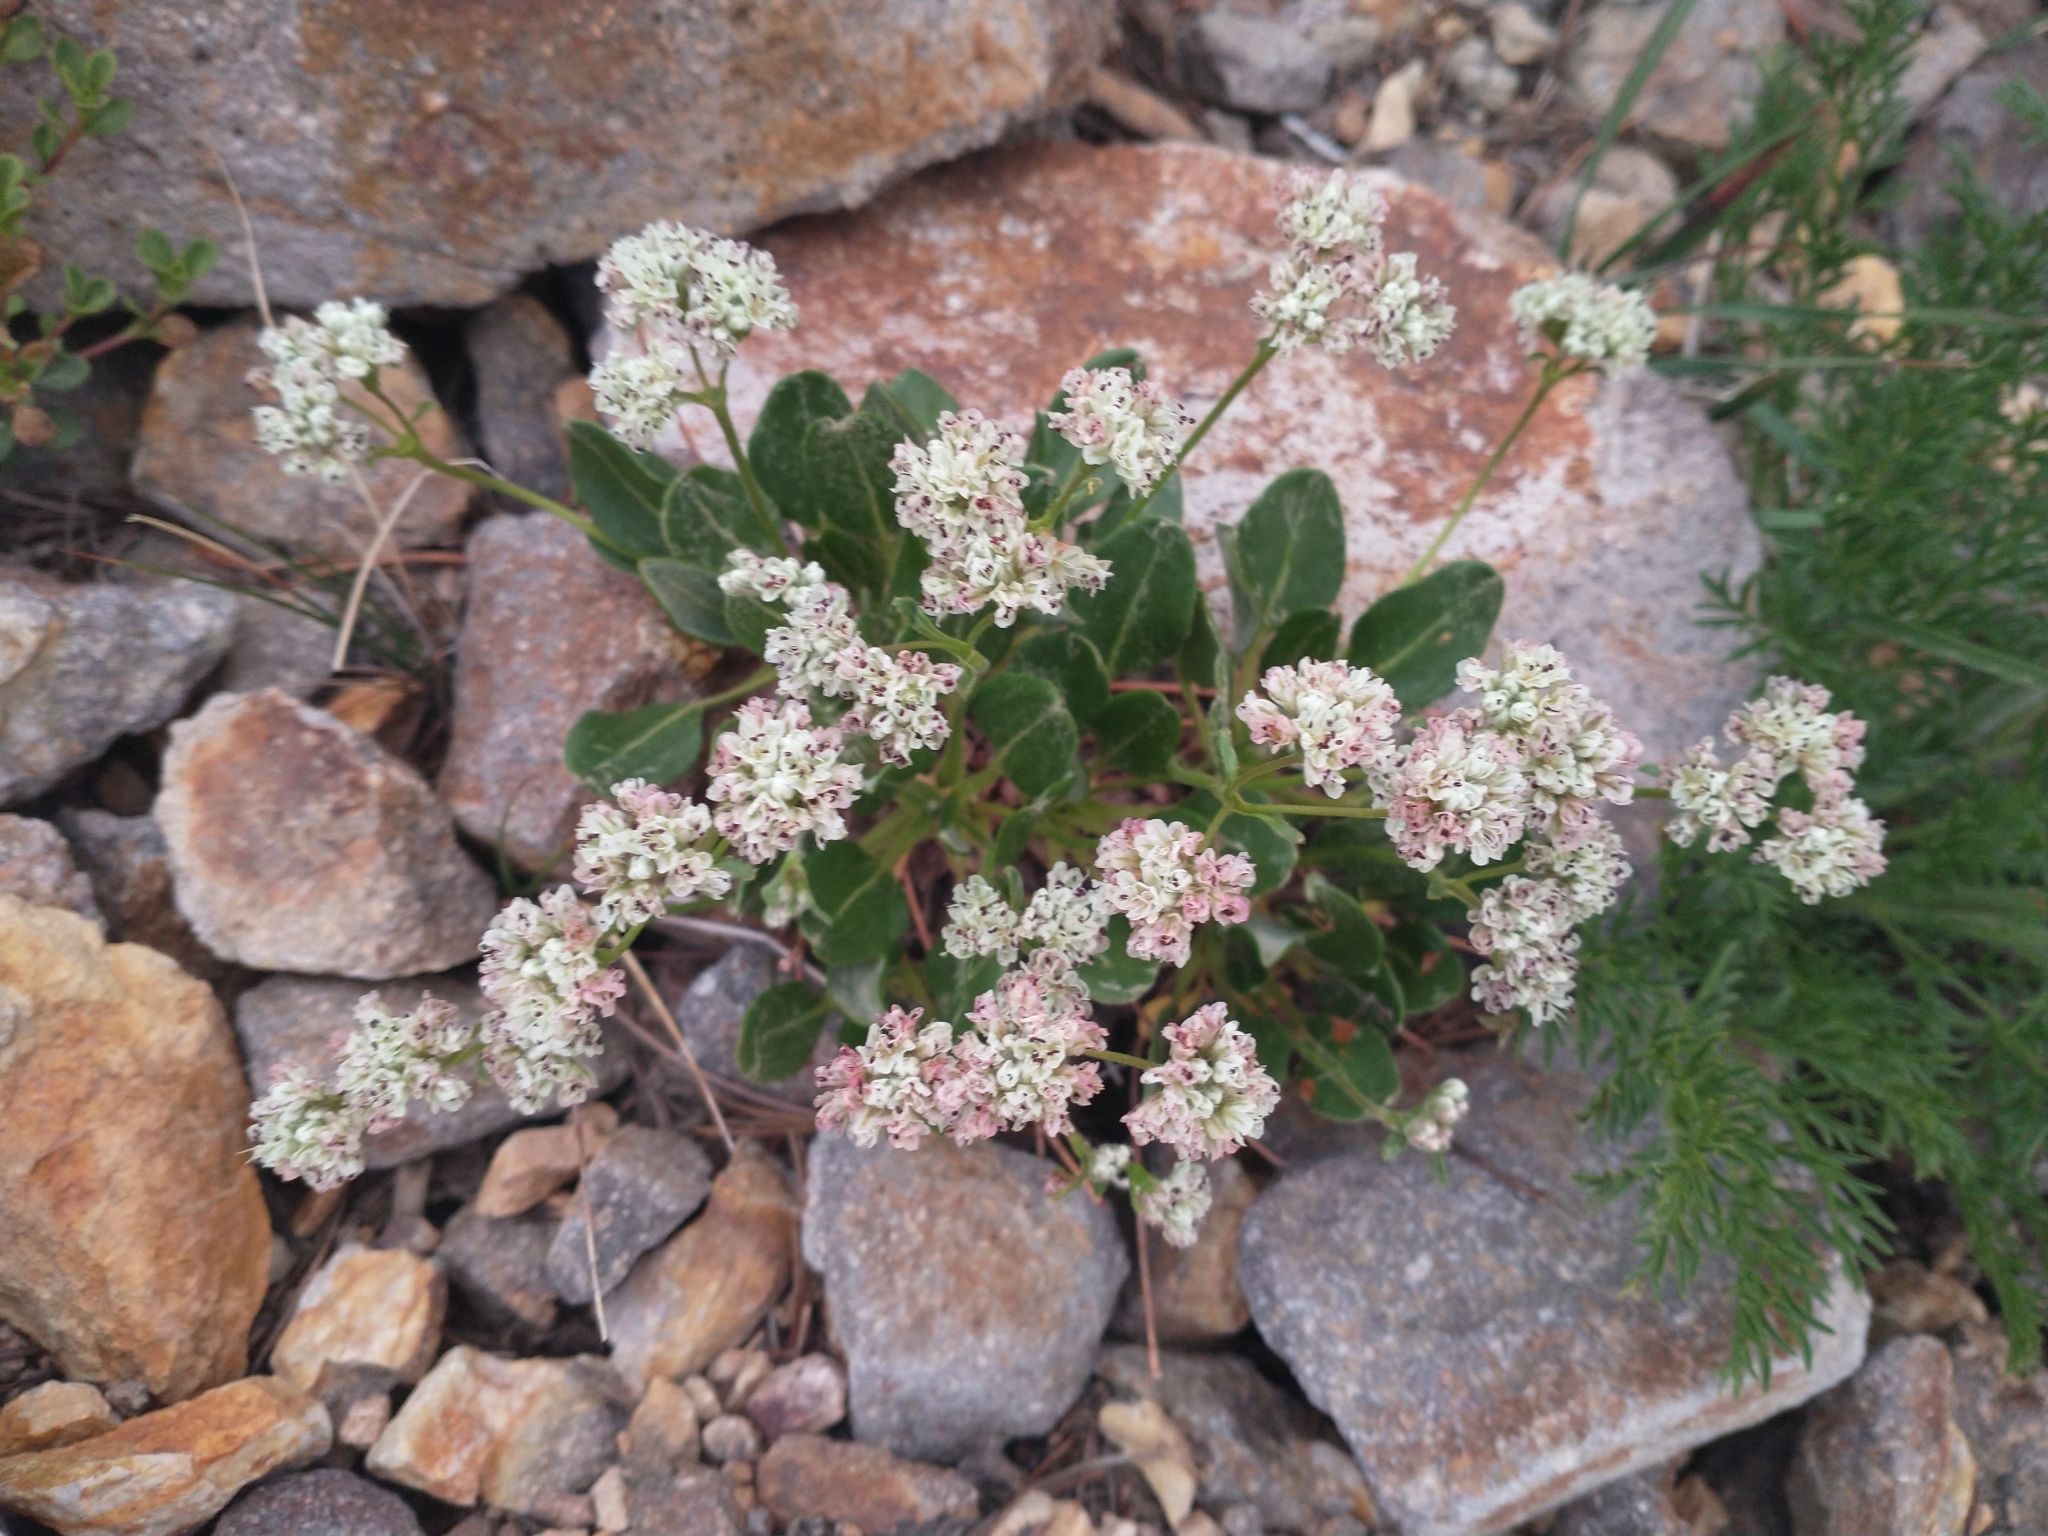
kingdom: Plantae
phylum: Tracheophyta
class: Magnoliopsida
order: Caryophyllales
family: Polygonaceae
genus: Eriogonum
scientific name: Eriogonum pyrolifolium
